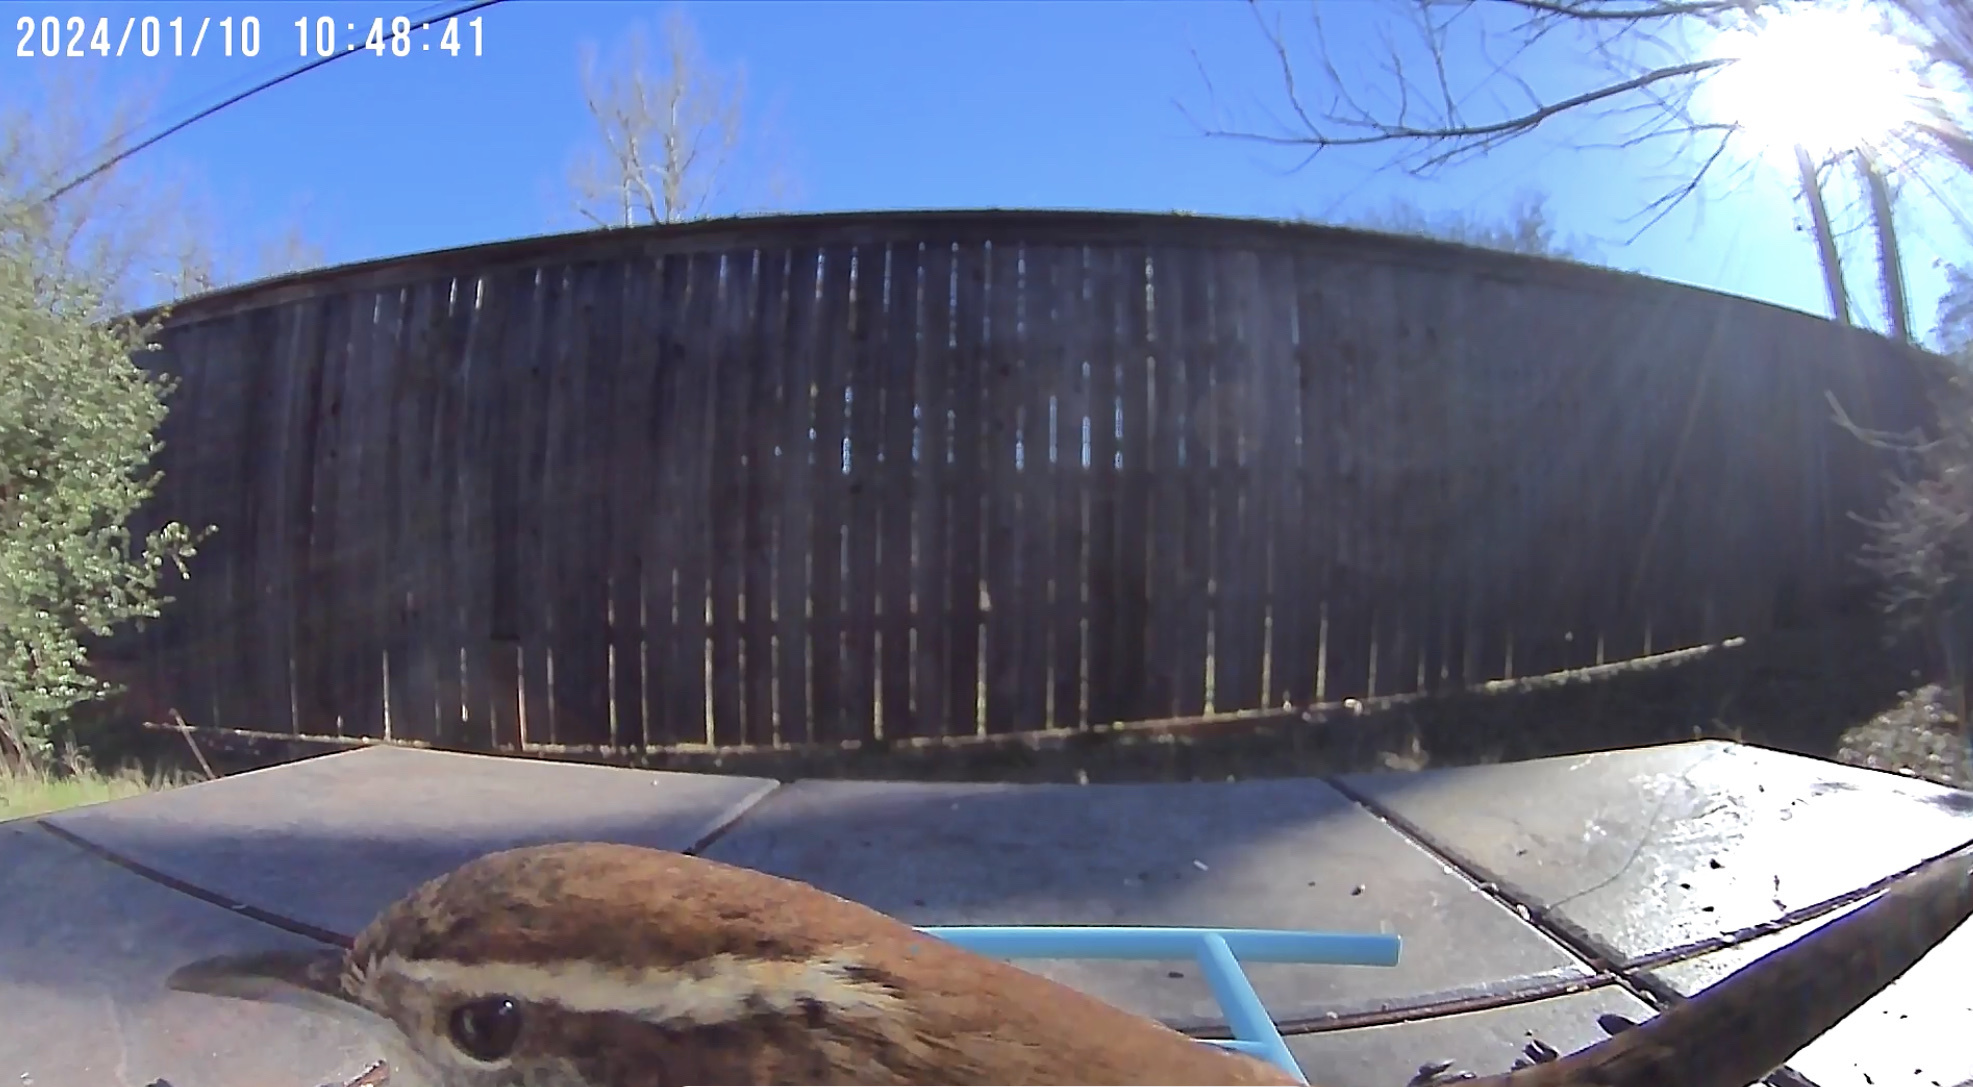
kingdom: Animalia
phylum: Chordata
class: Aves
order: Passeriformes
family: Troglodytidae
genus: Thryothorus
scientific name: Thryothorus ludovicianus
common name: Carolina wren
